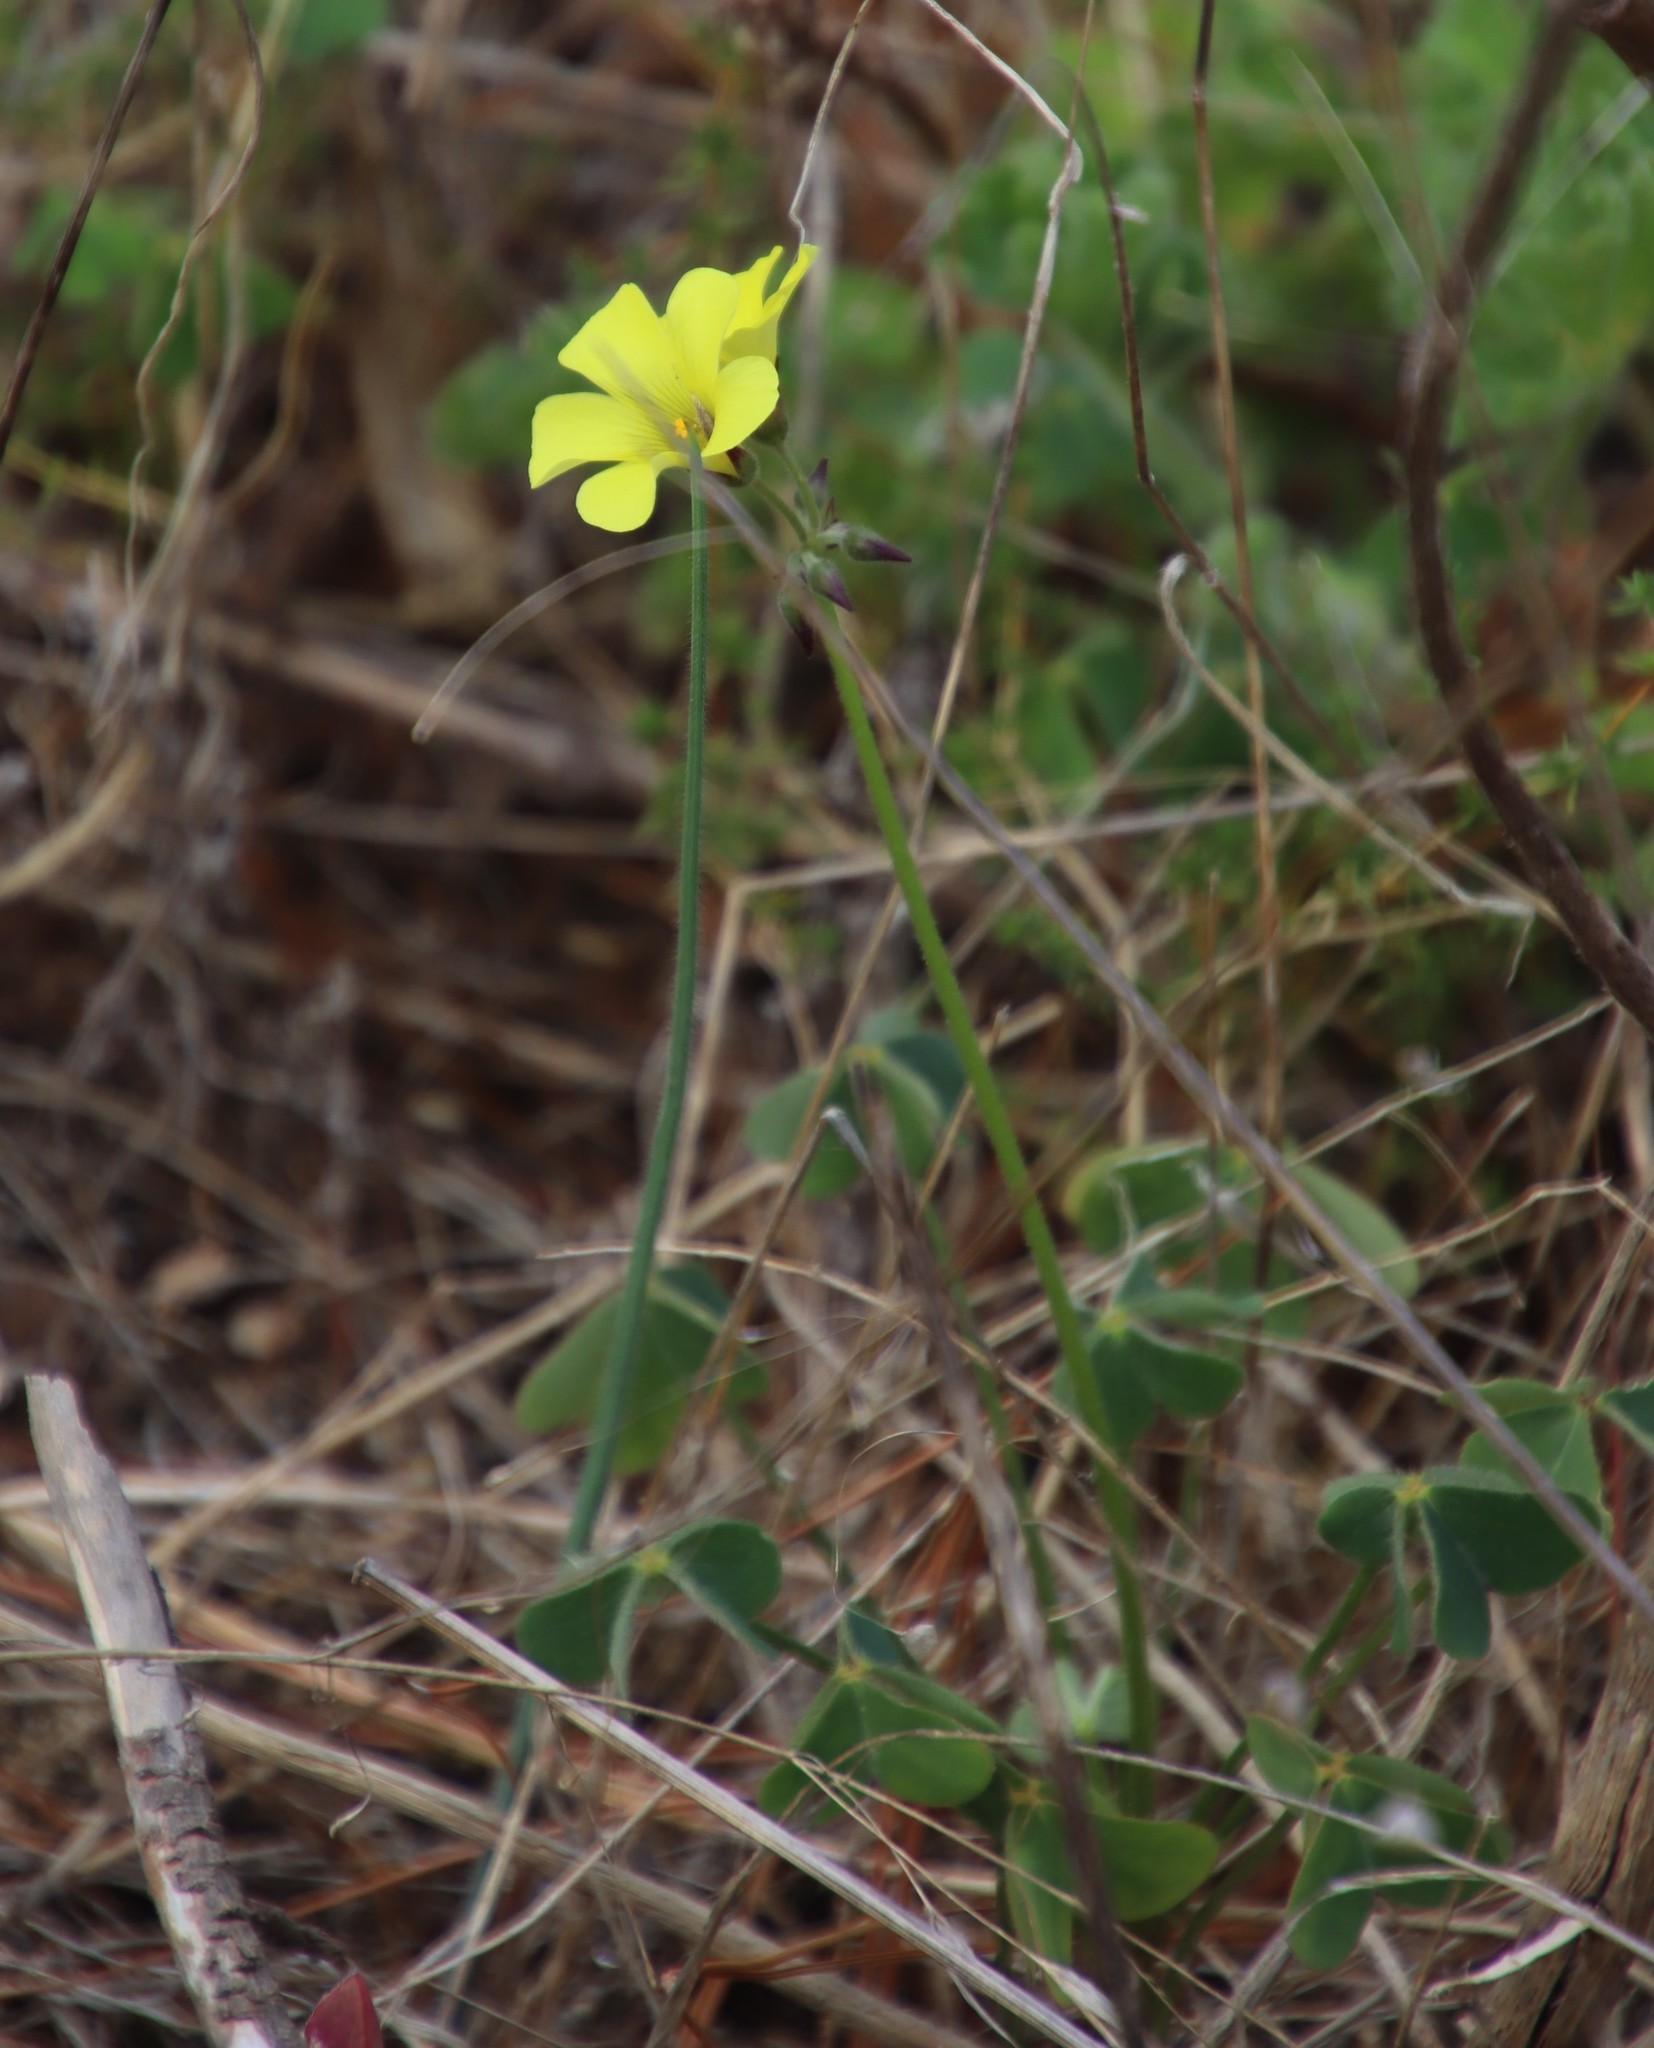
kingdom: Plantae
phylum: Tracheophyta
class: Magnoliopsida
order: Oxalidales
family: Oxalidaceae
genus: Oxalis
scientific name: Oxalis pes-caprae
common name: Bermuda-buttercup
